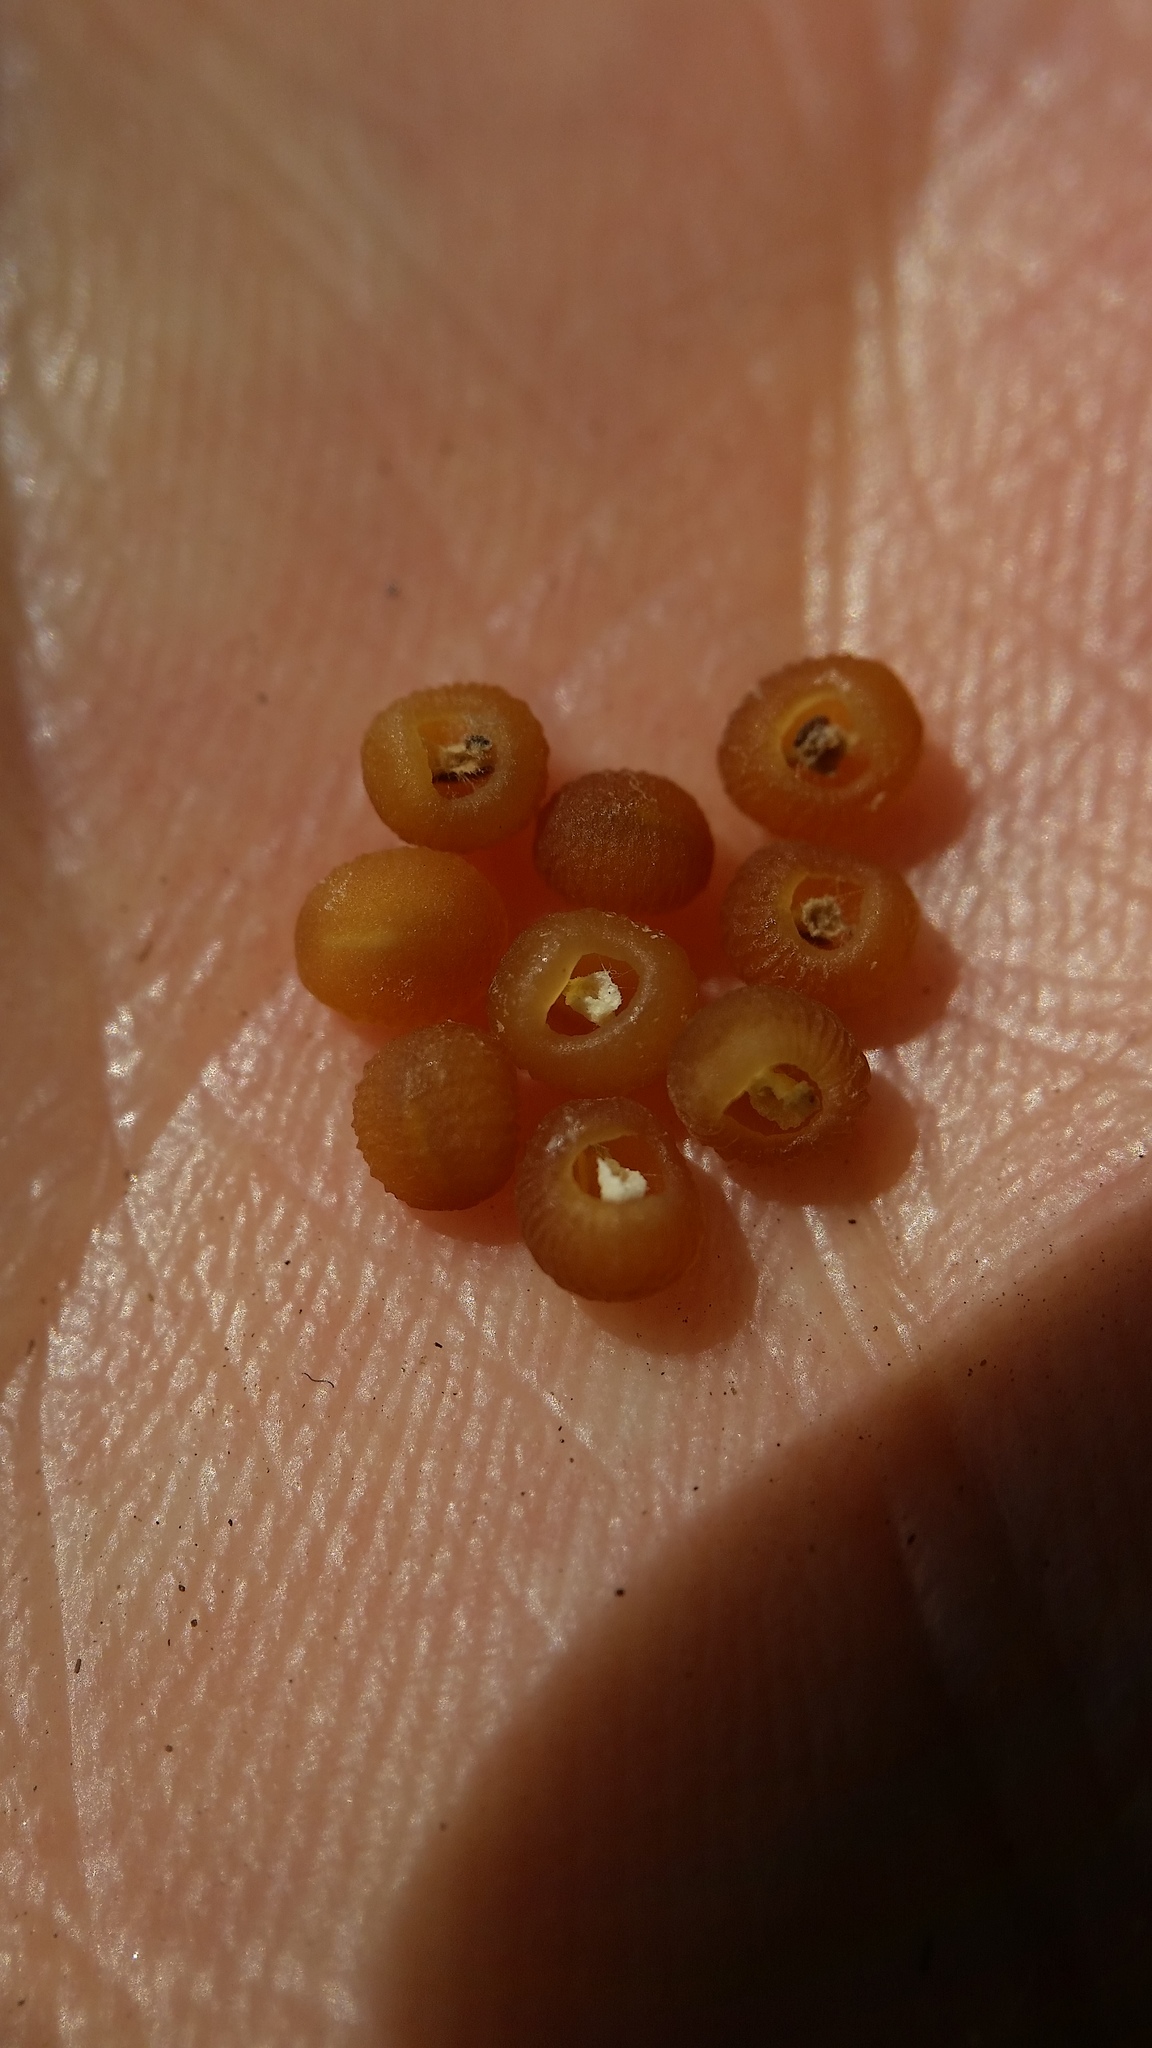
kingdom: Plantae
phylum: Tracheophyta
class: Magnoliopsida
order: Lamiales
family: Plantaginaceae
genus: Veronica
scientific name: Veronica hederifolia
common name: Ivy-leaved speedwell
